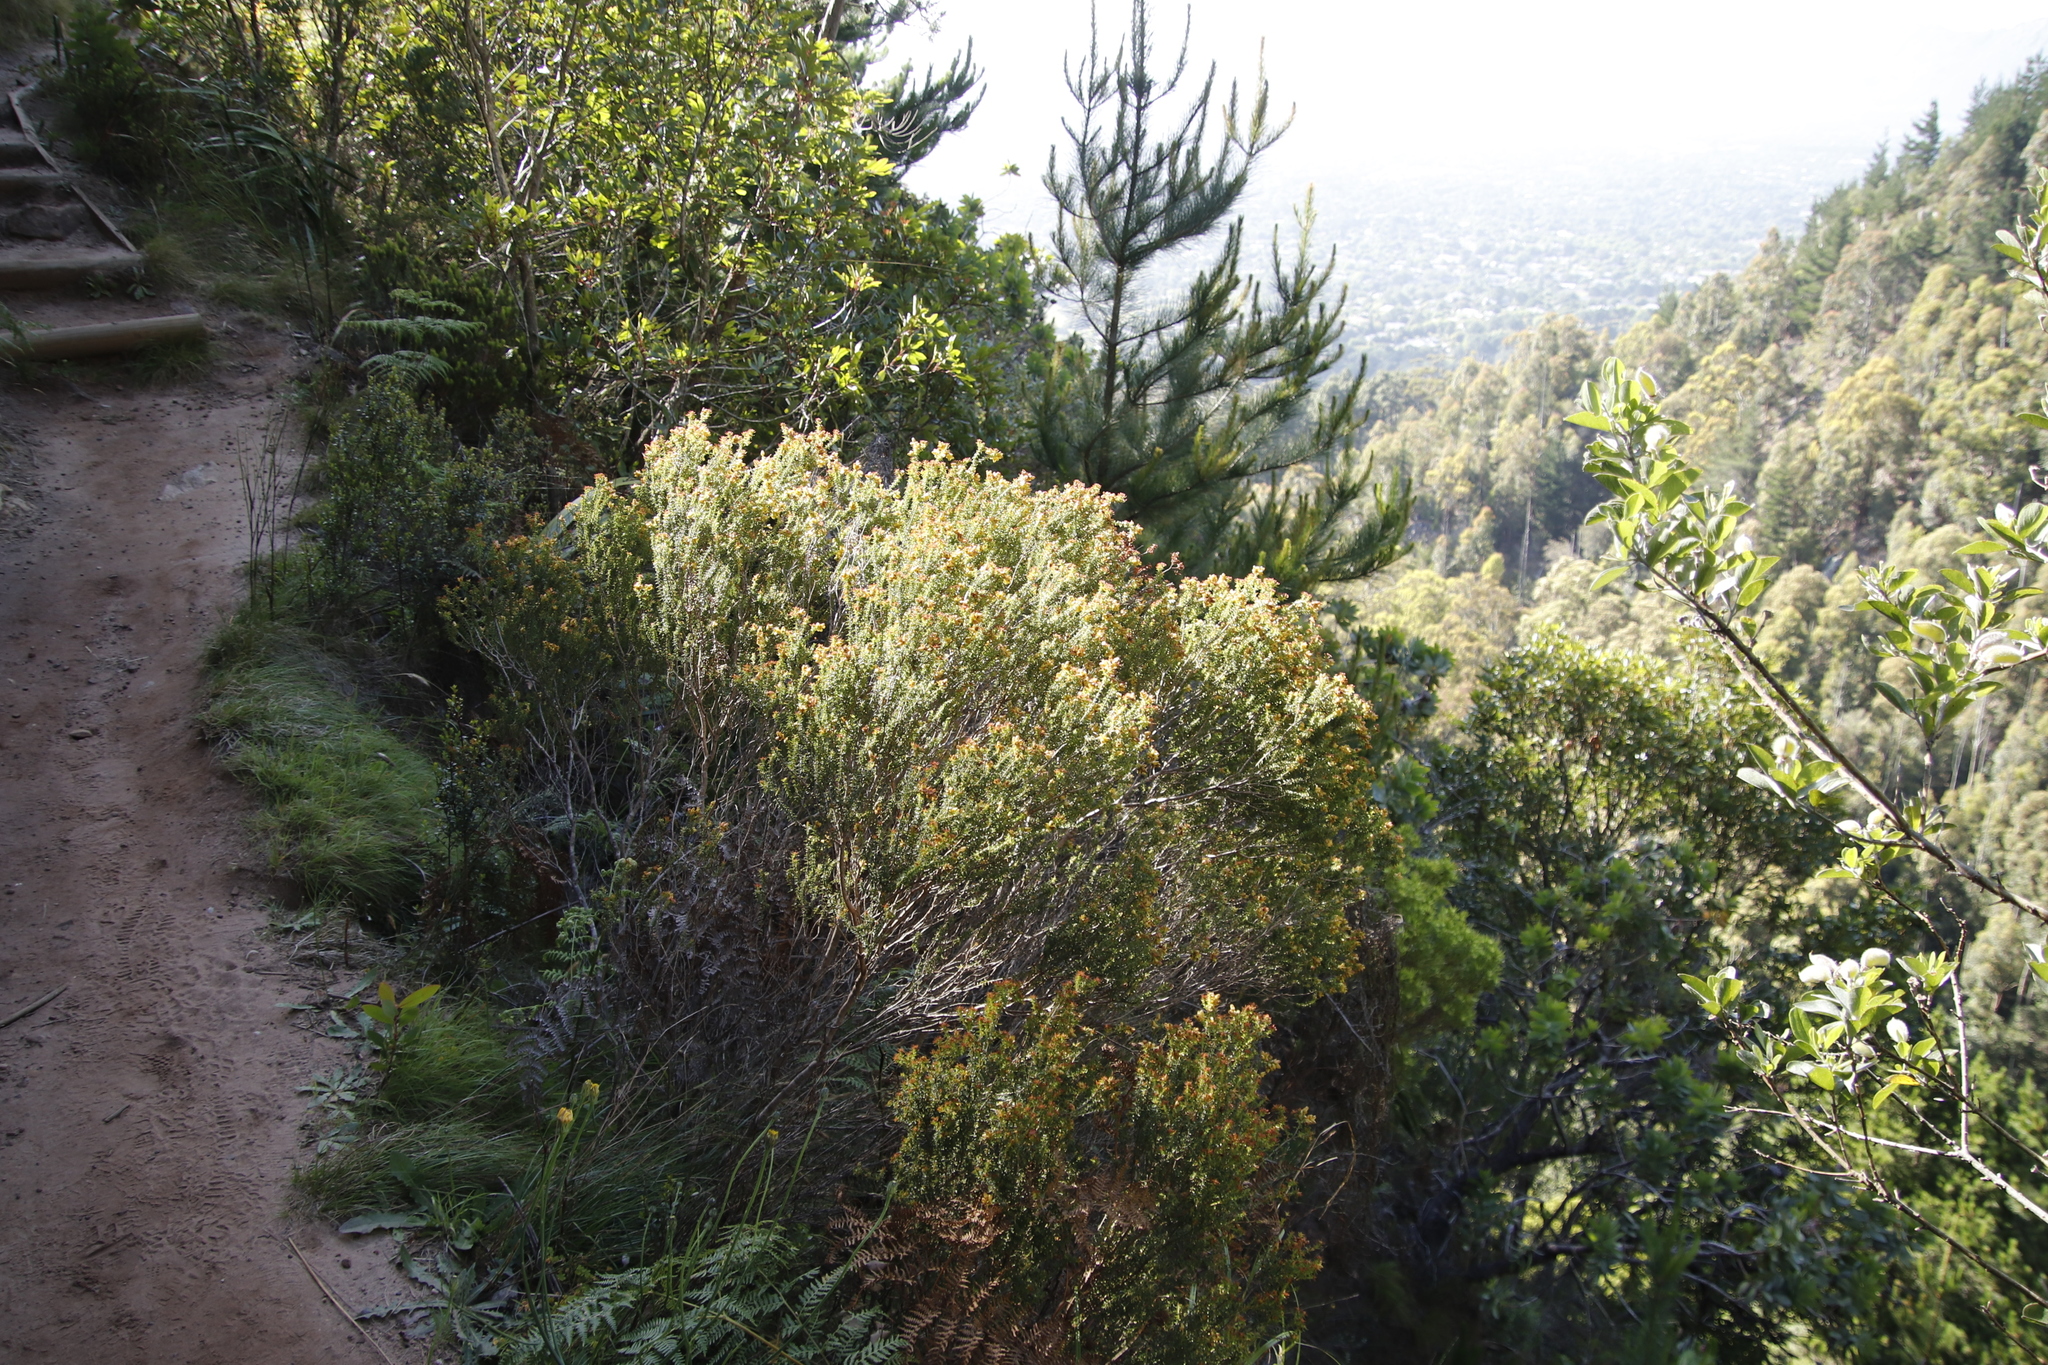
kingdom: Plantae
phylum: Tracheophyta
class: Magnoliopsida
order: Myrtales
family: Penaeaceae
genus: Penaea
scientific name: Penaea mucronata
